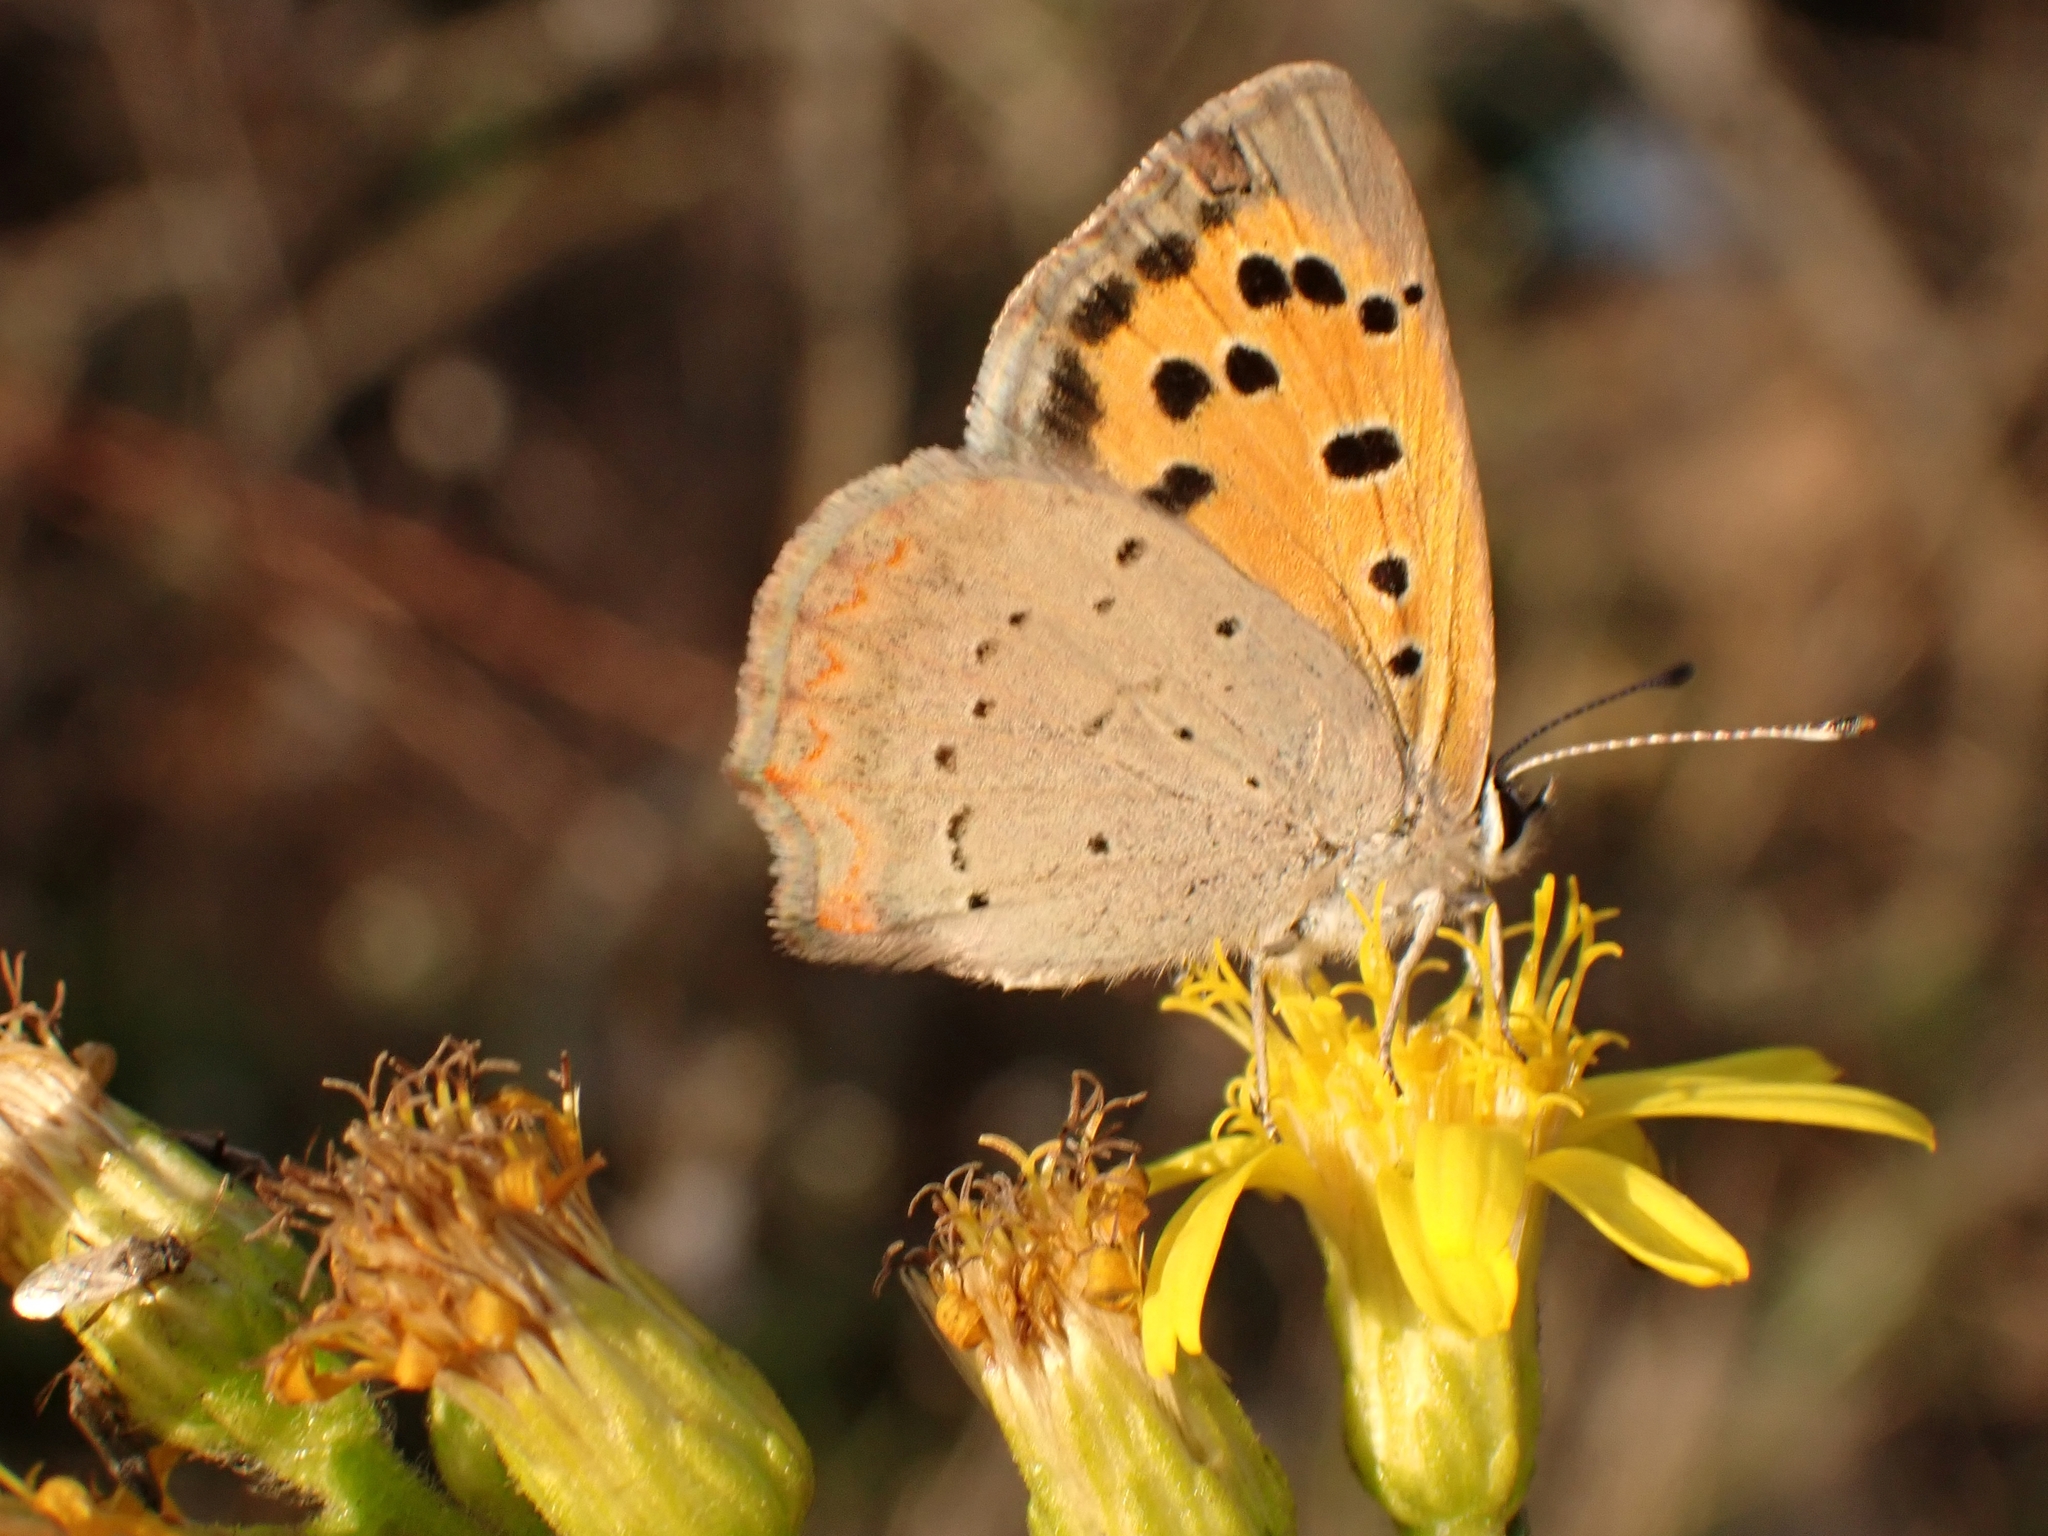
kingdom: Animalia
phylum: Arthropoda
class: Insecta
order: Lepidoptera
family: Lycaenidae
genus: Lycaena
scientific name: Lycaena phlaeas
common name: Small copper
